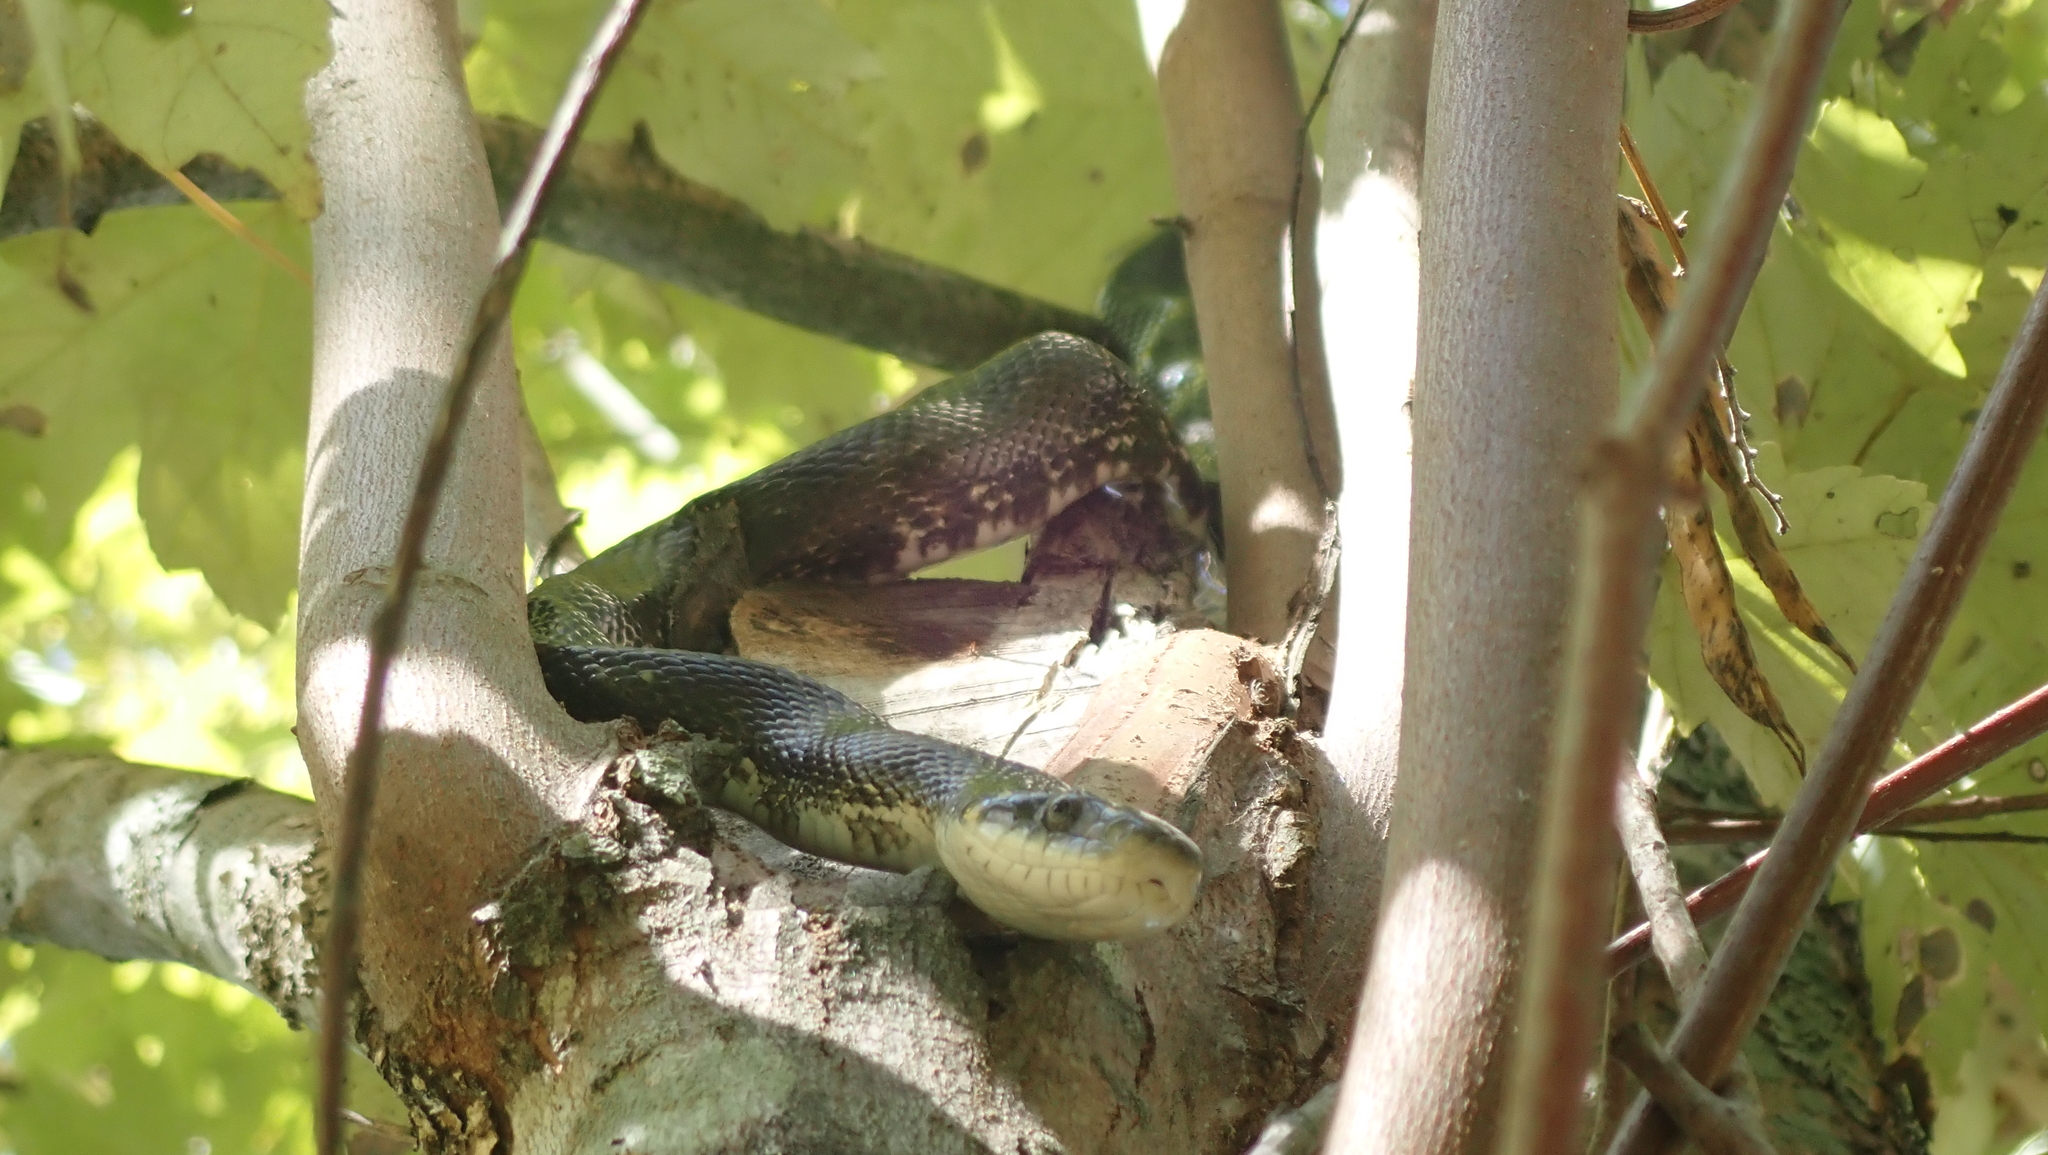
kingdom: Animalia
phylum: Chordata
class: Squamata
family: Colubridae
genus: Pantherophis
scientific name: Pantherophis spiloides
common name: Gray rat snake
